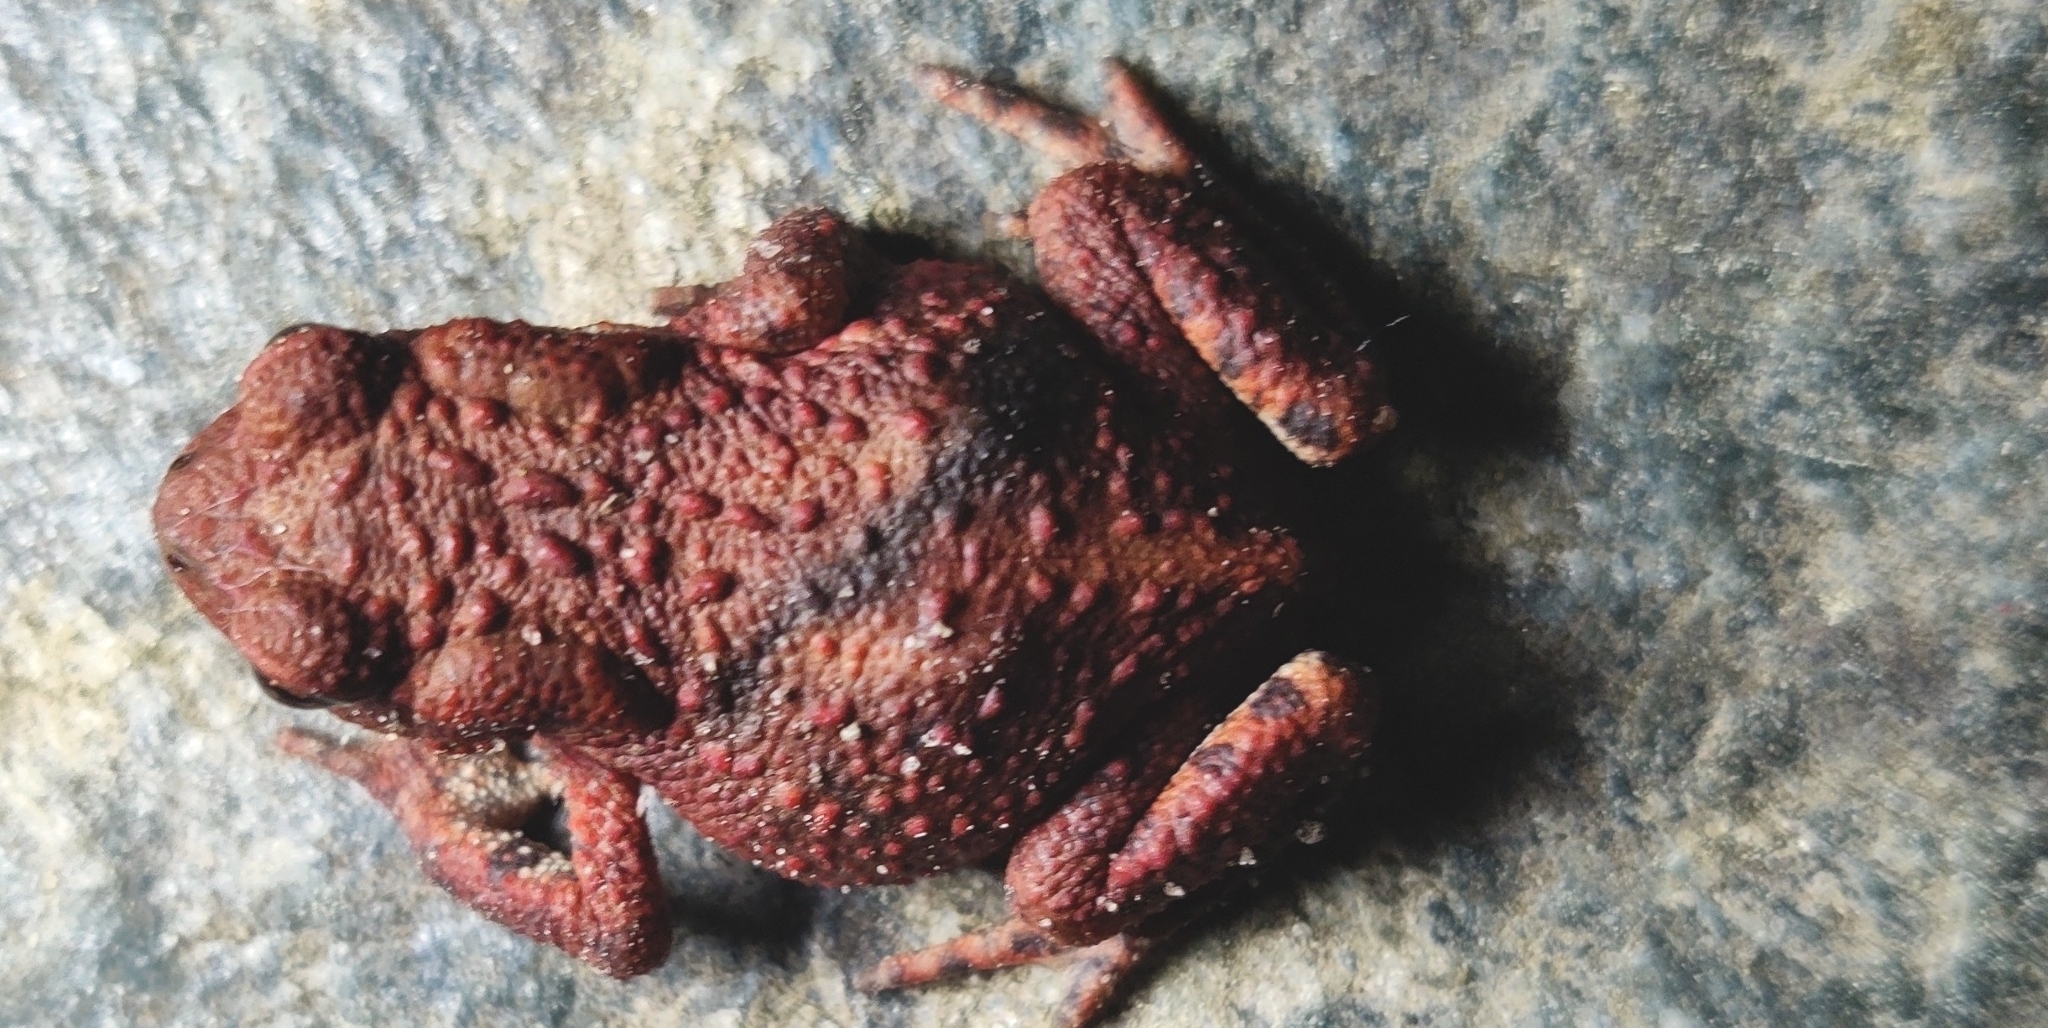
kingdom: Animalia
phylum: Chordata
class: Amphibia
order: Anura
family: Bufonidae
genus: Bufo
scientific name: Bufo bufo
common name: Common toad
